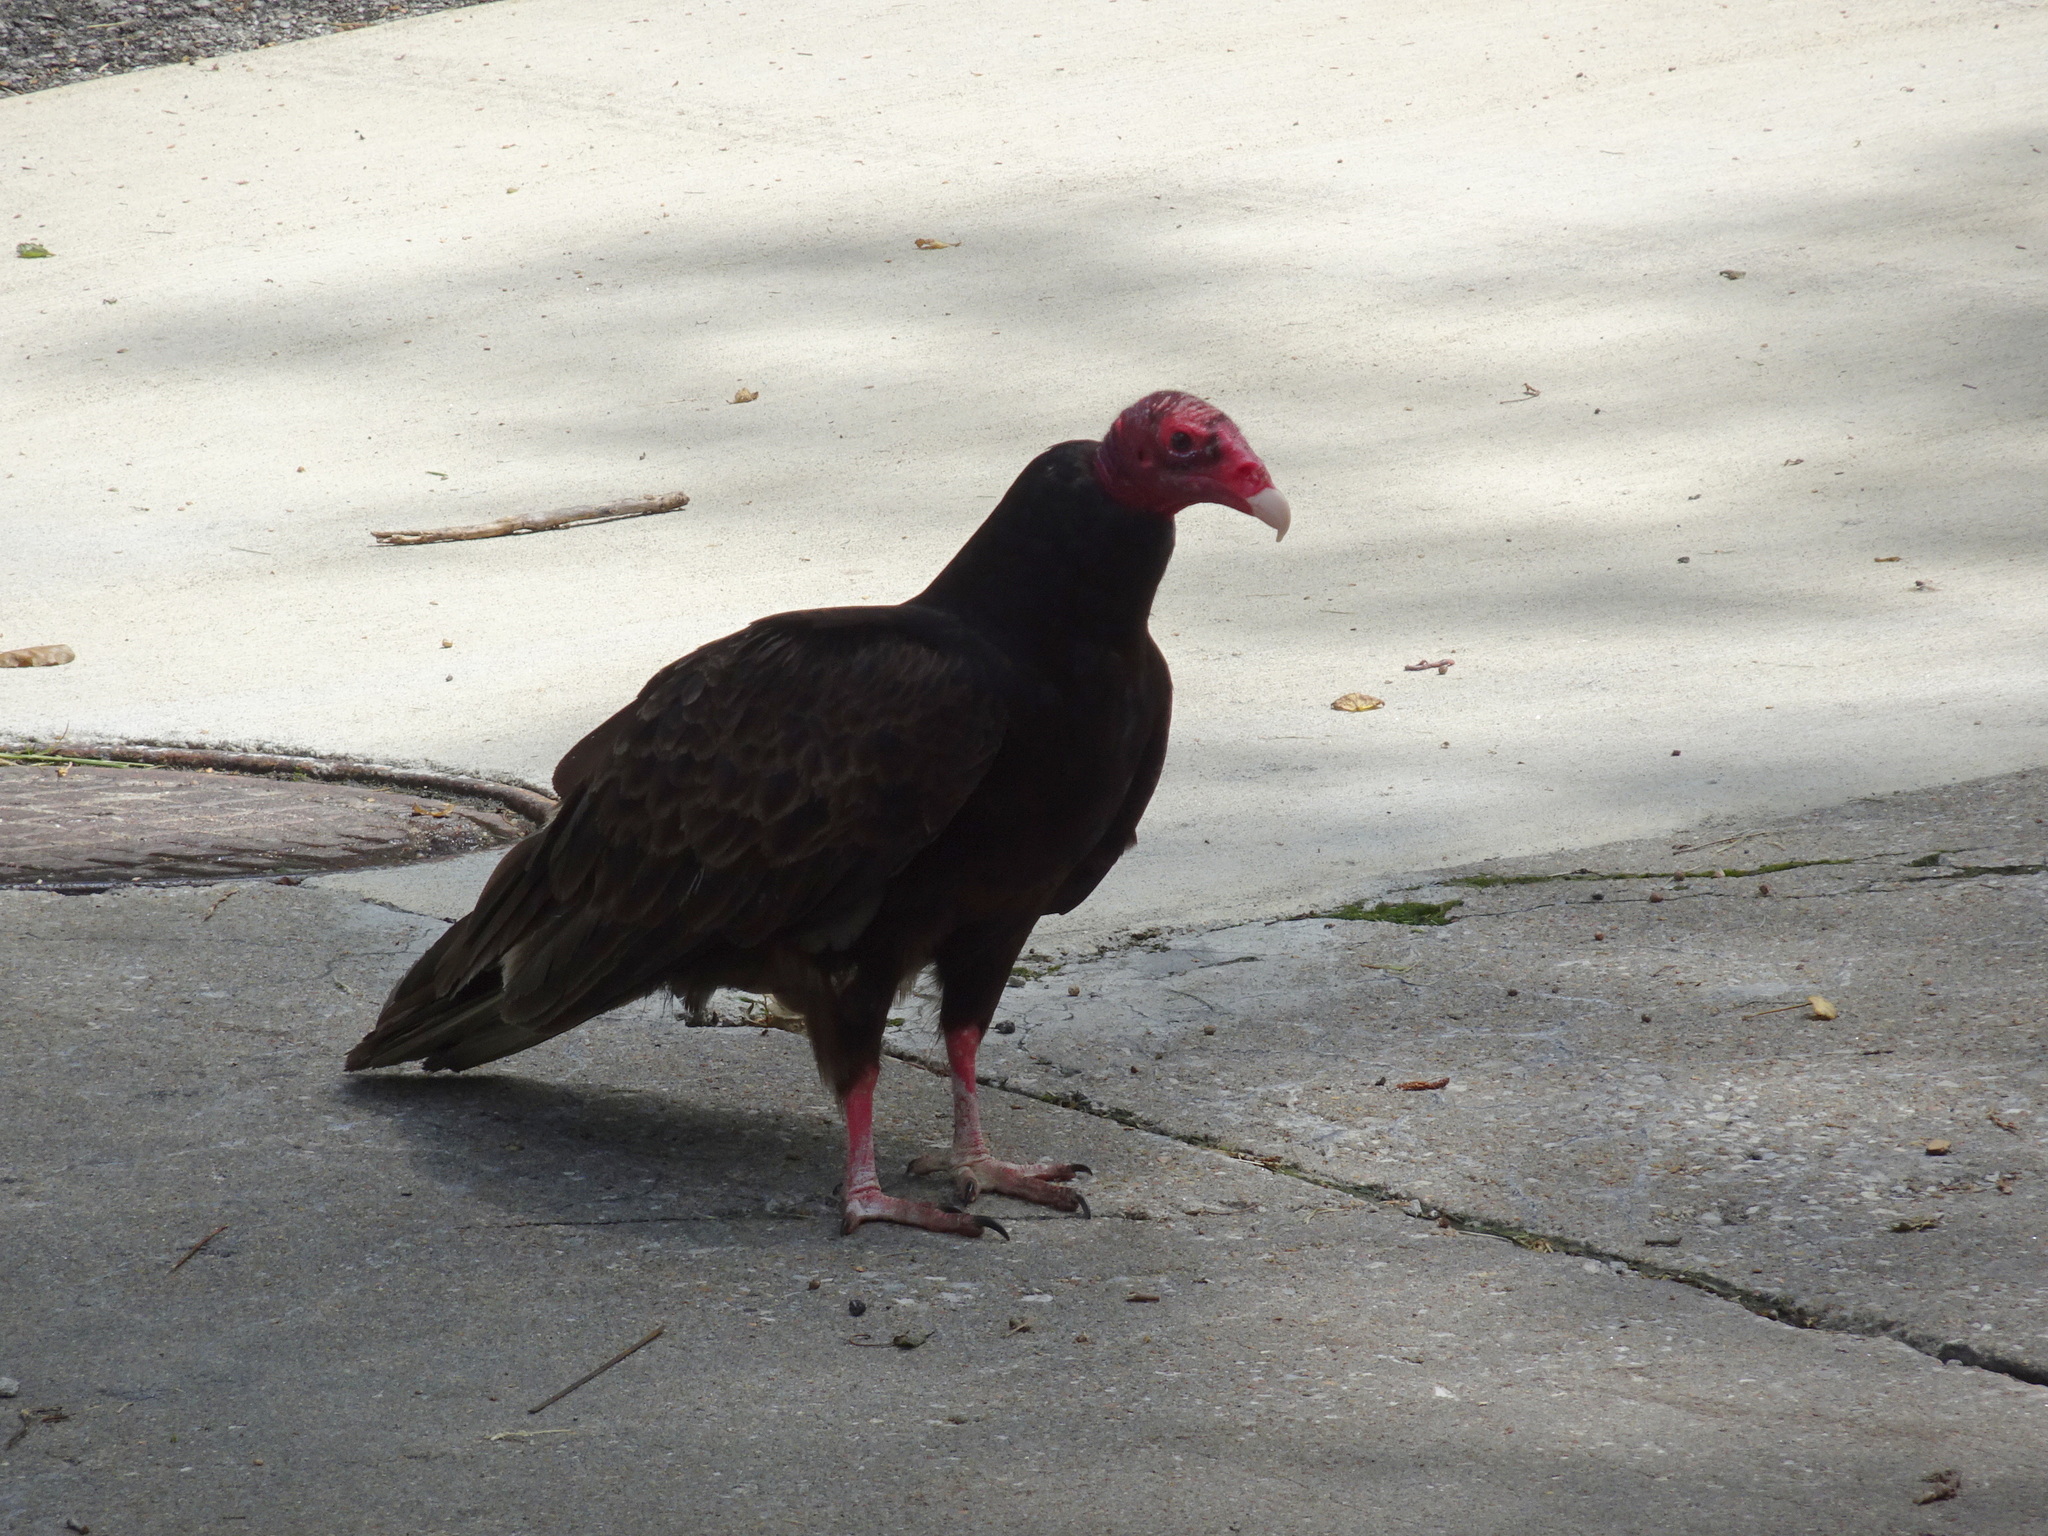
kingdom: Animalia
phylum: Chordata
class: Aves
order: Accipitriformes
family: Cathartidae
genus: Cathartes
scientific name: Cathartes aura
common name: Turkey vulture
